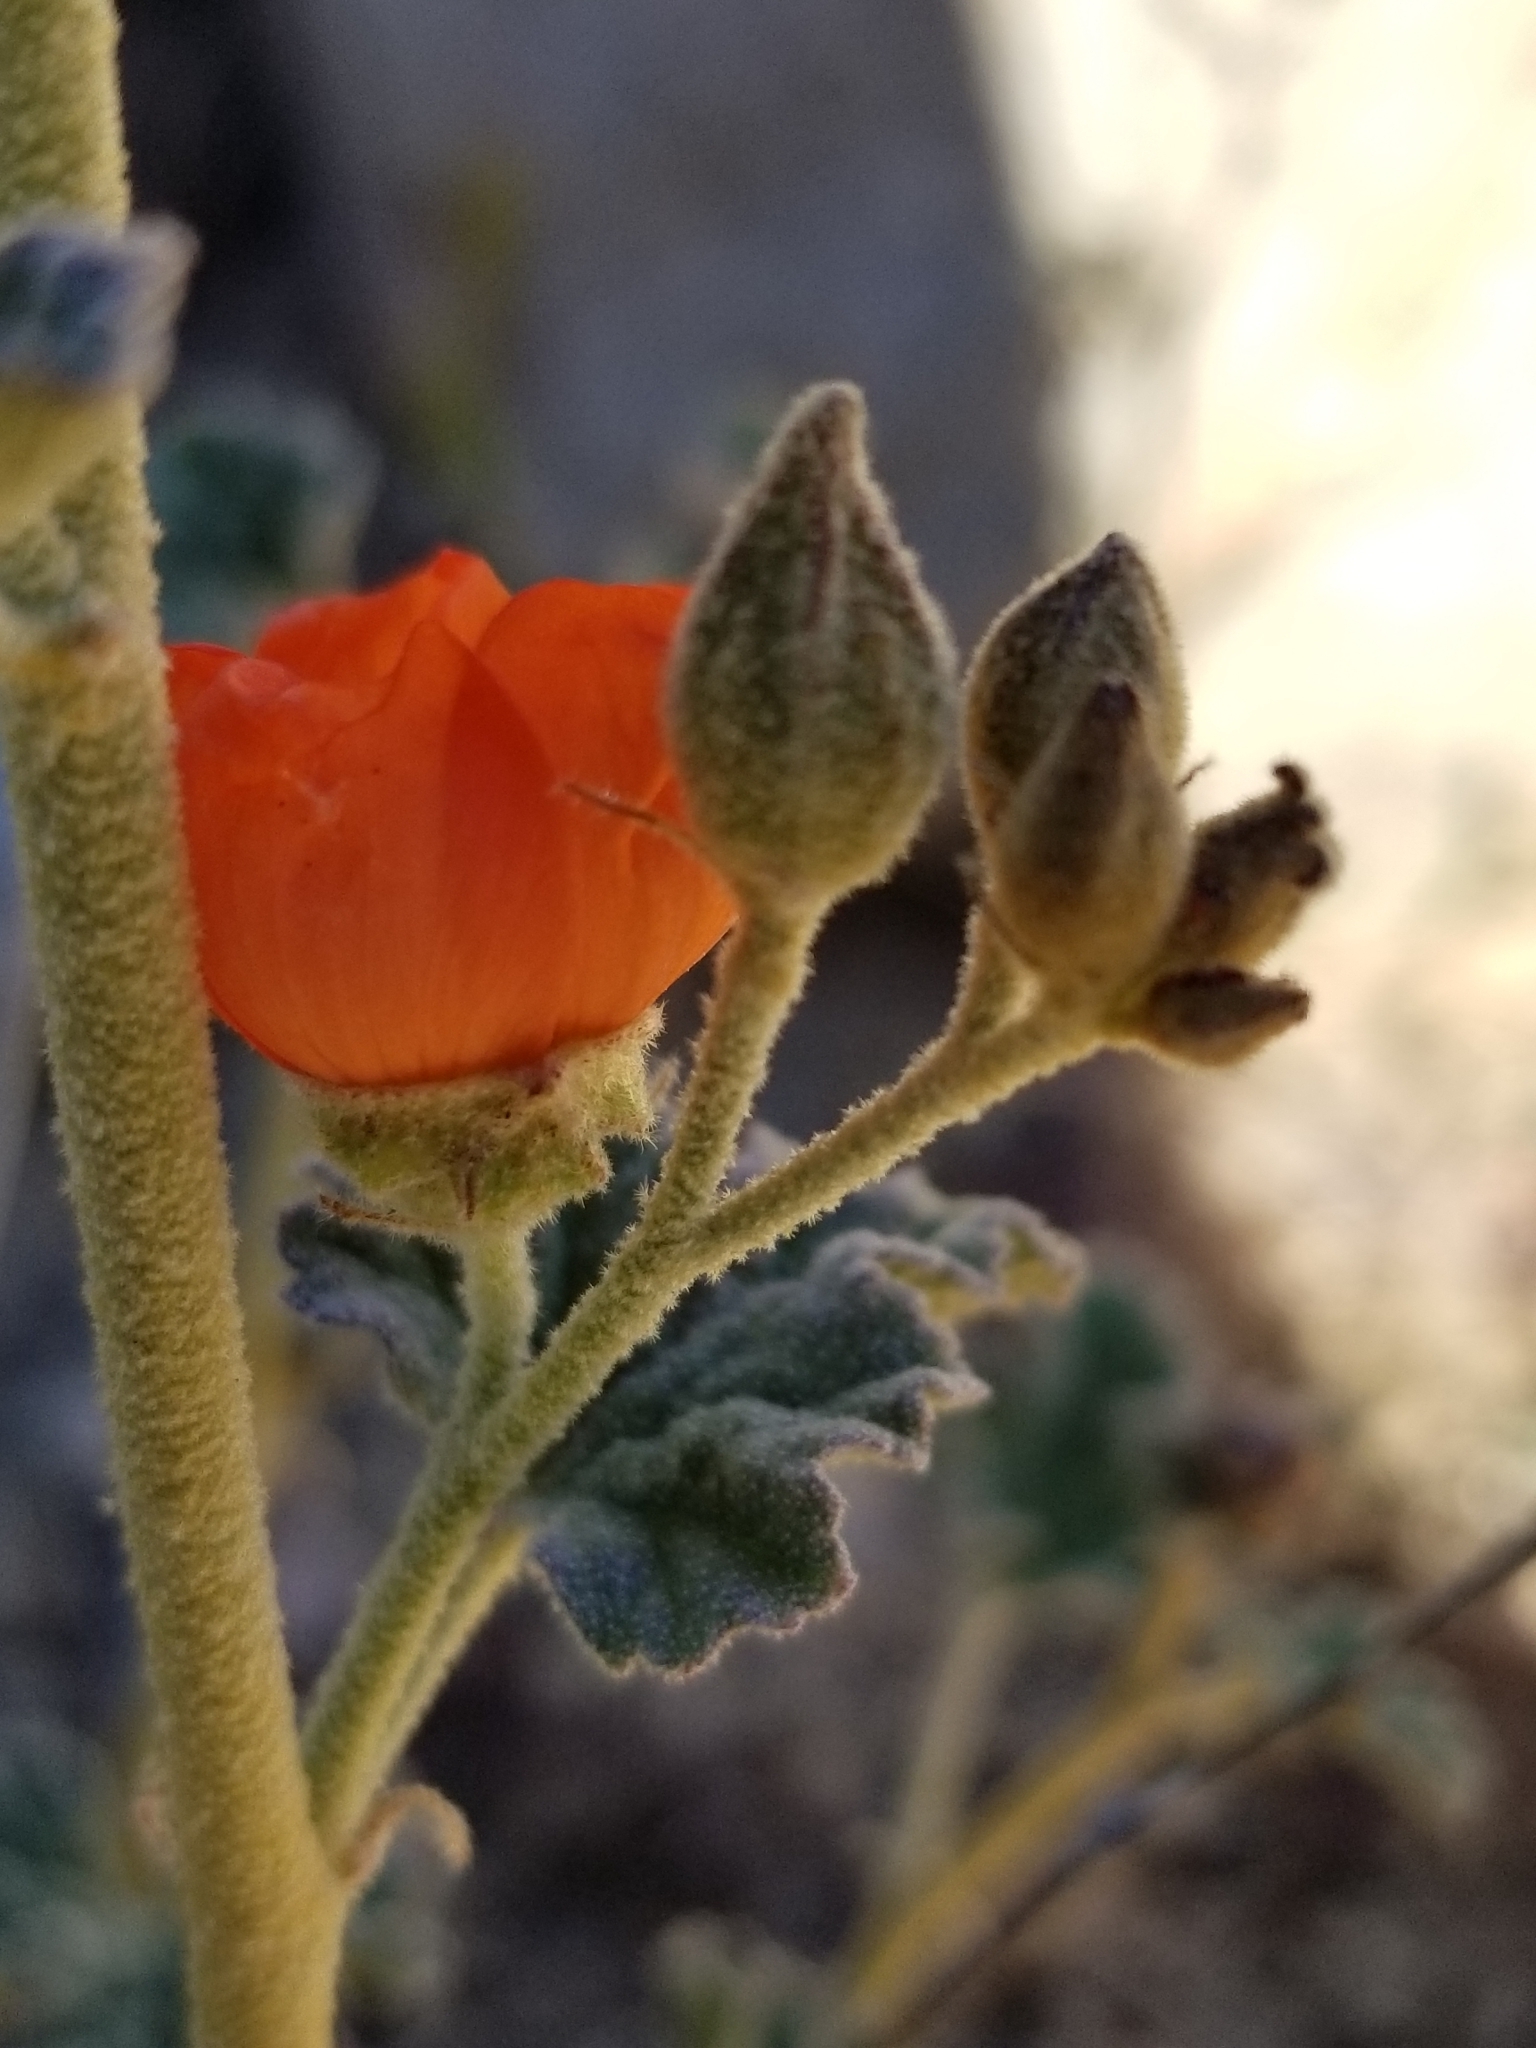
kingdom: Plantae
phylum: Tracheophyta
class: Magnoliopsida
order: Malvales
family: Malvaceae
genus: Sphaeralcea
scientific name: Sphaeralcea ambigua
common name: Apricot globe-mallow
